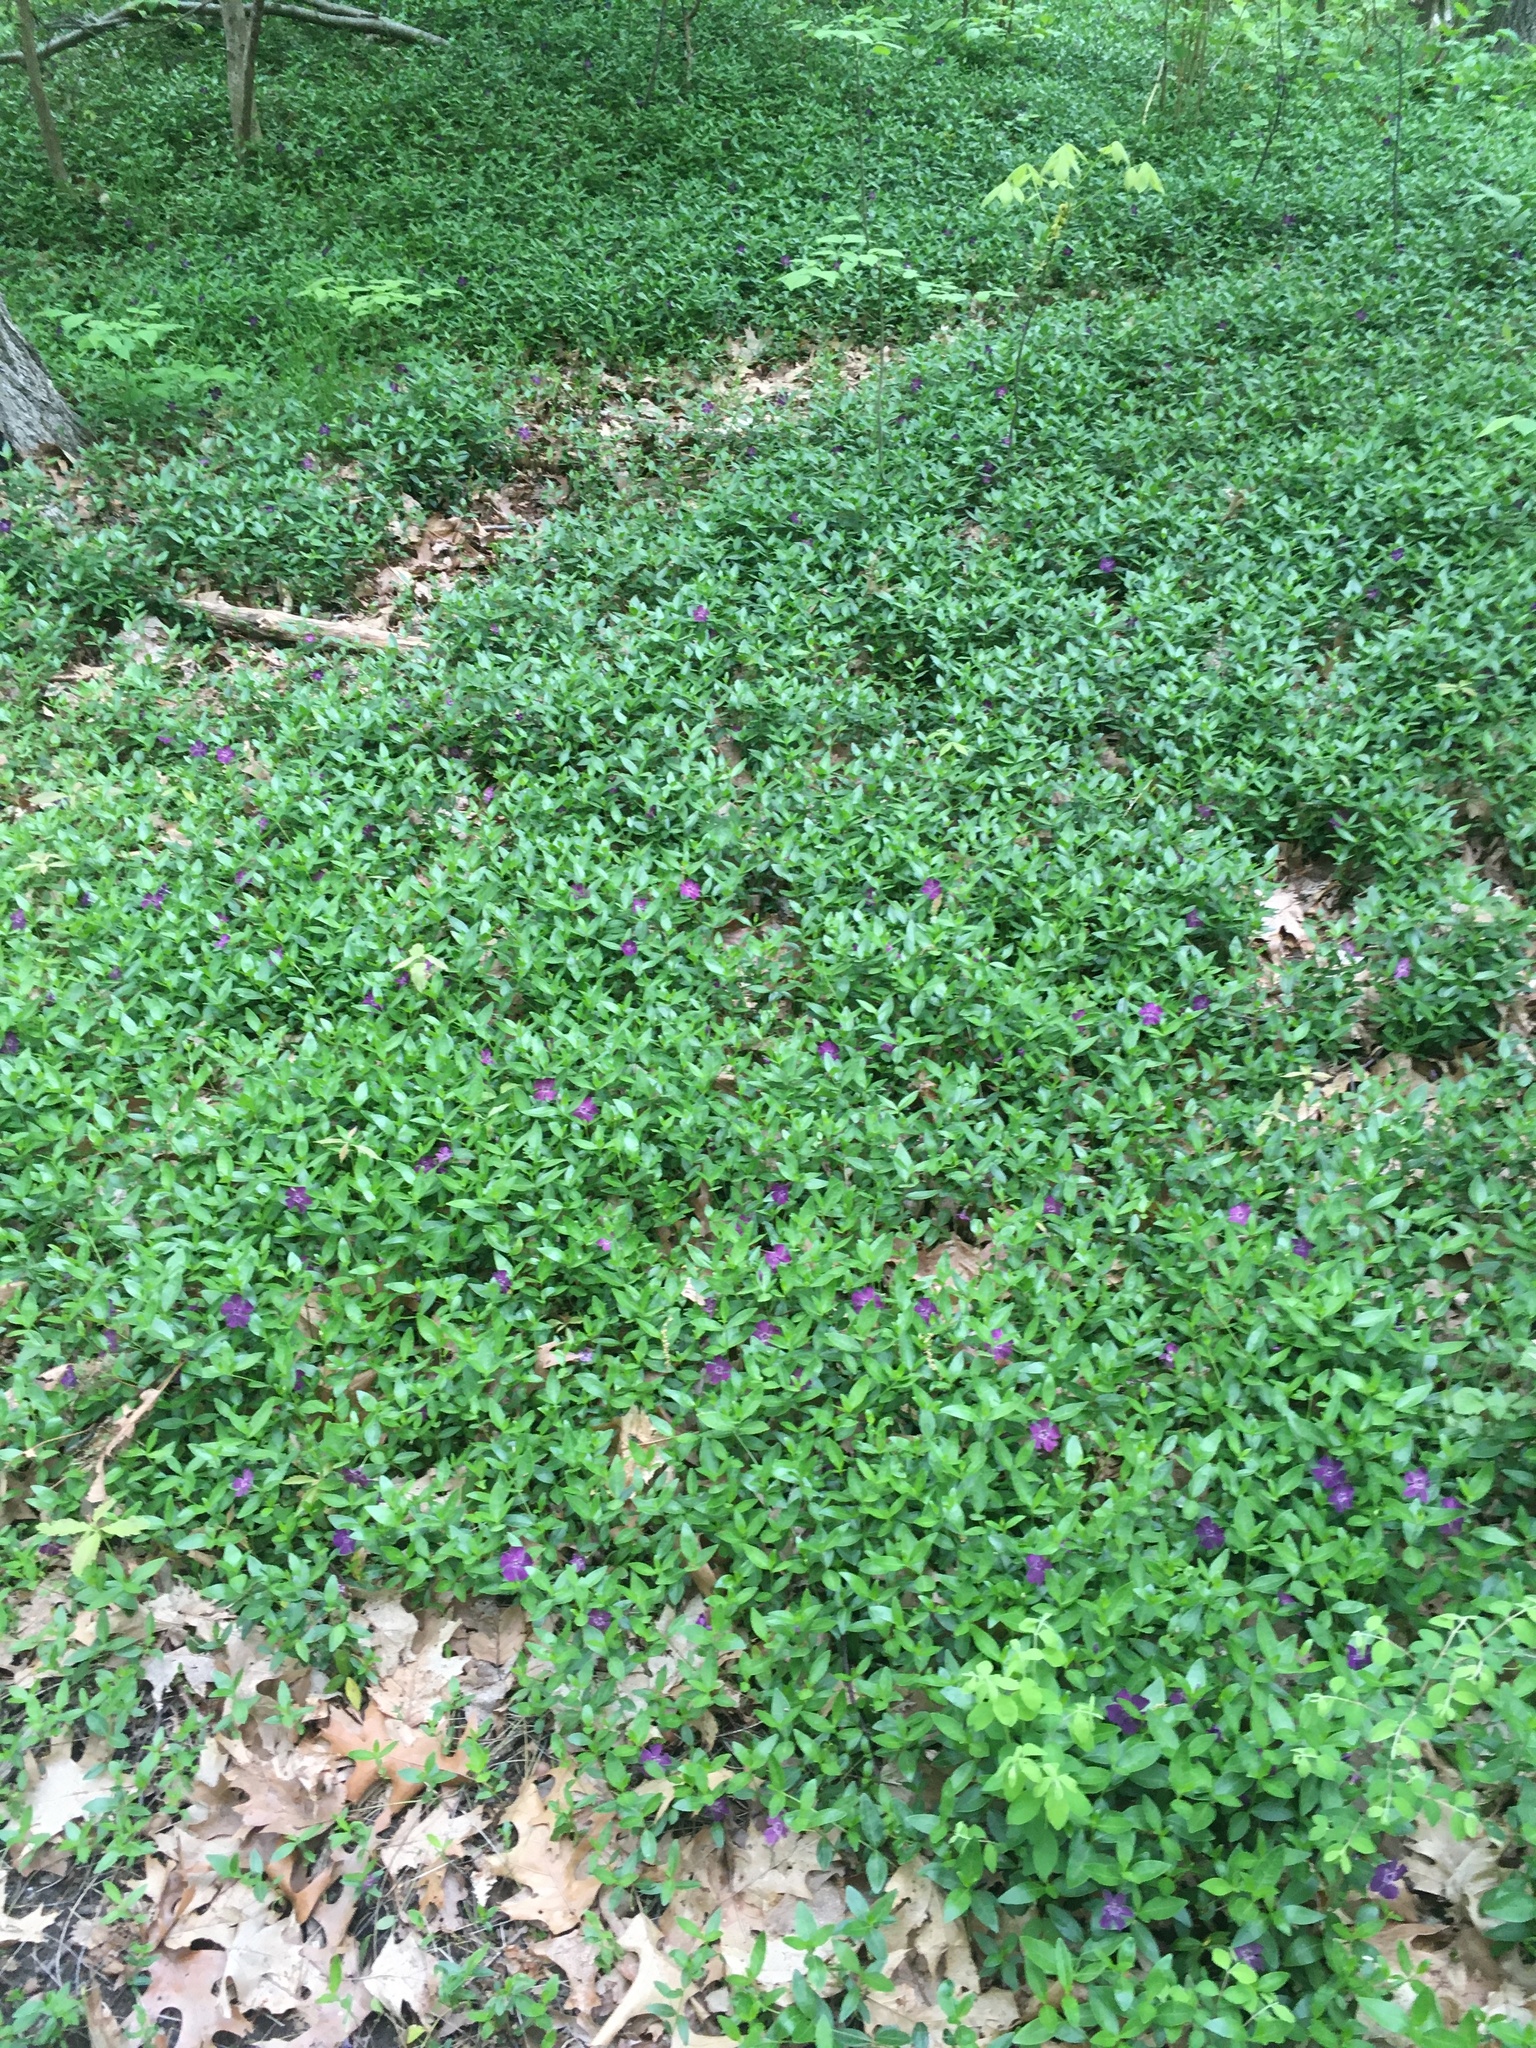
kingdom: Plantae
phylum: Tracheophyta
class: Magnoliopsida
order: Gentianales
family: Apocynaceae
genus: Vinca
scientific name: Vinca minor
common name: Lesser periwinkle
